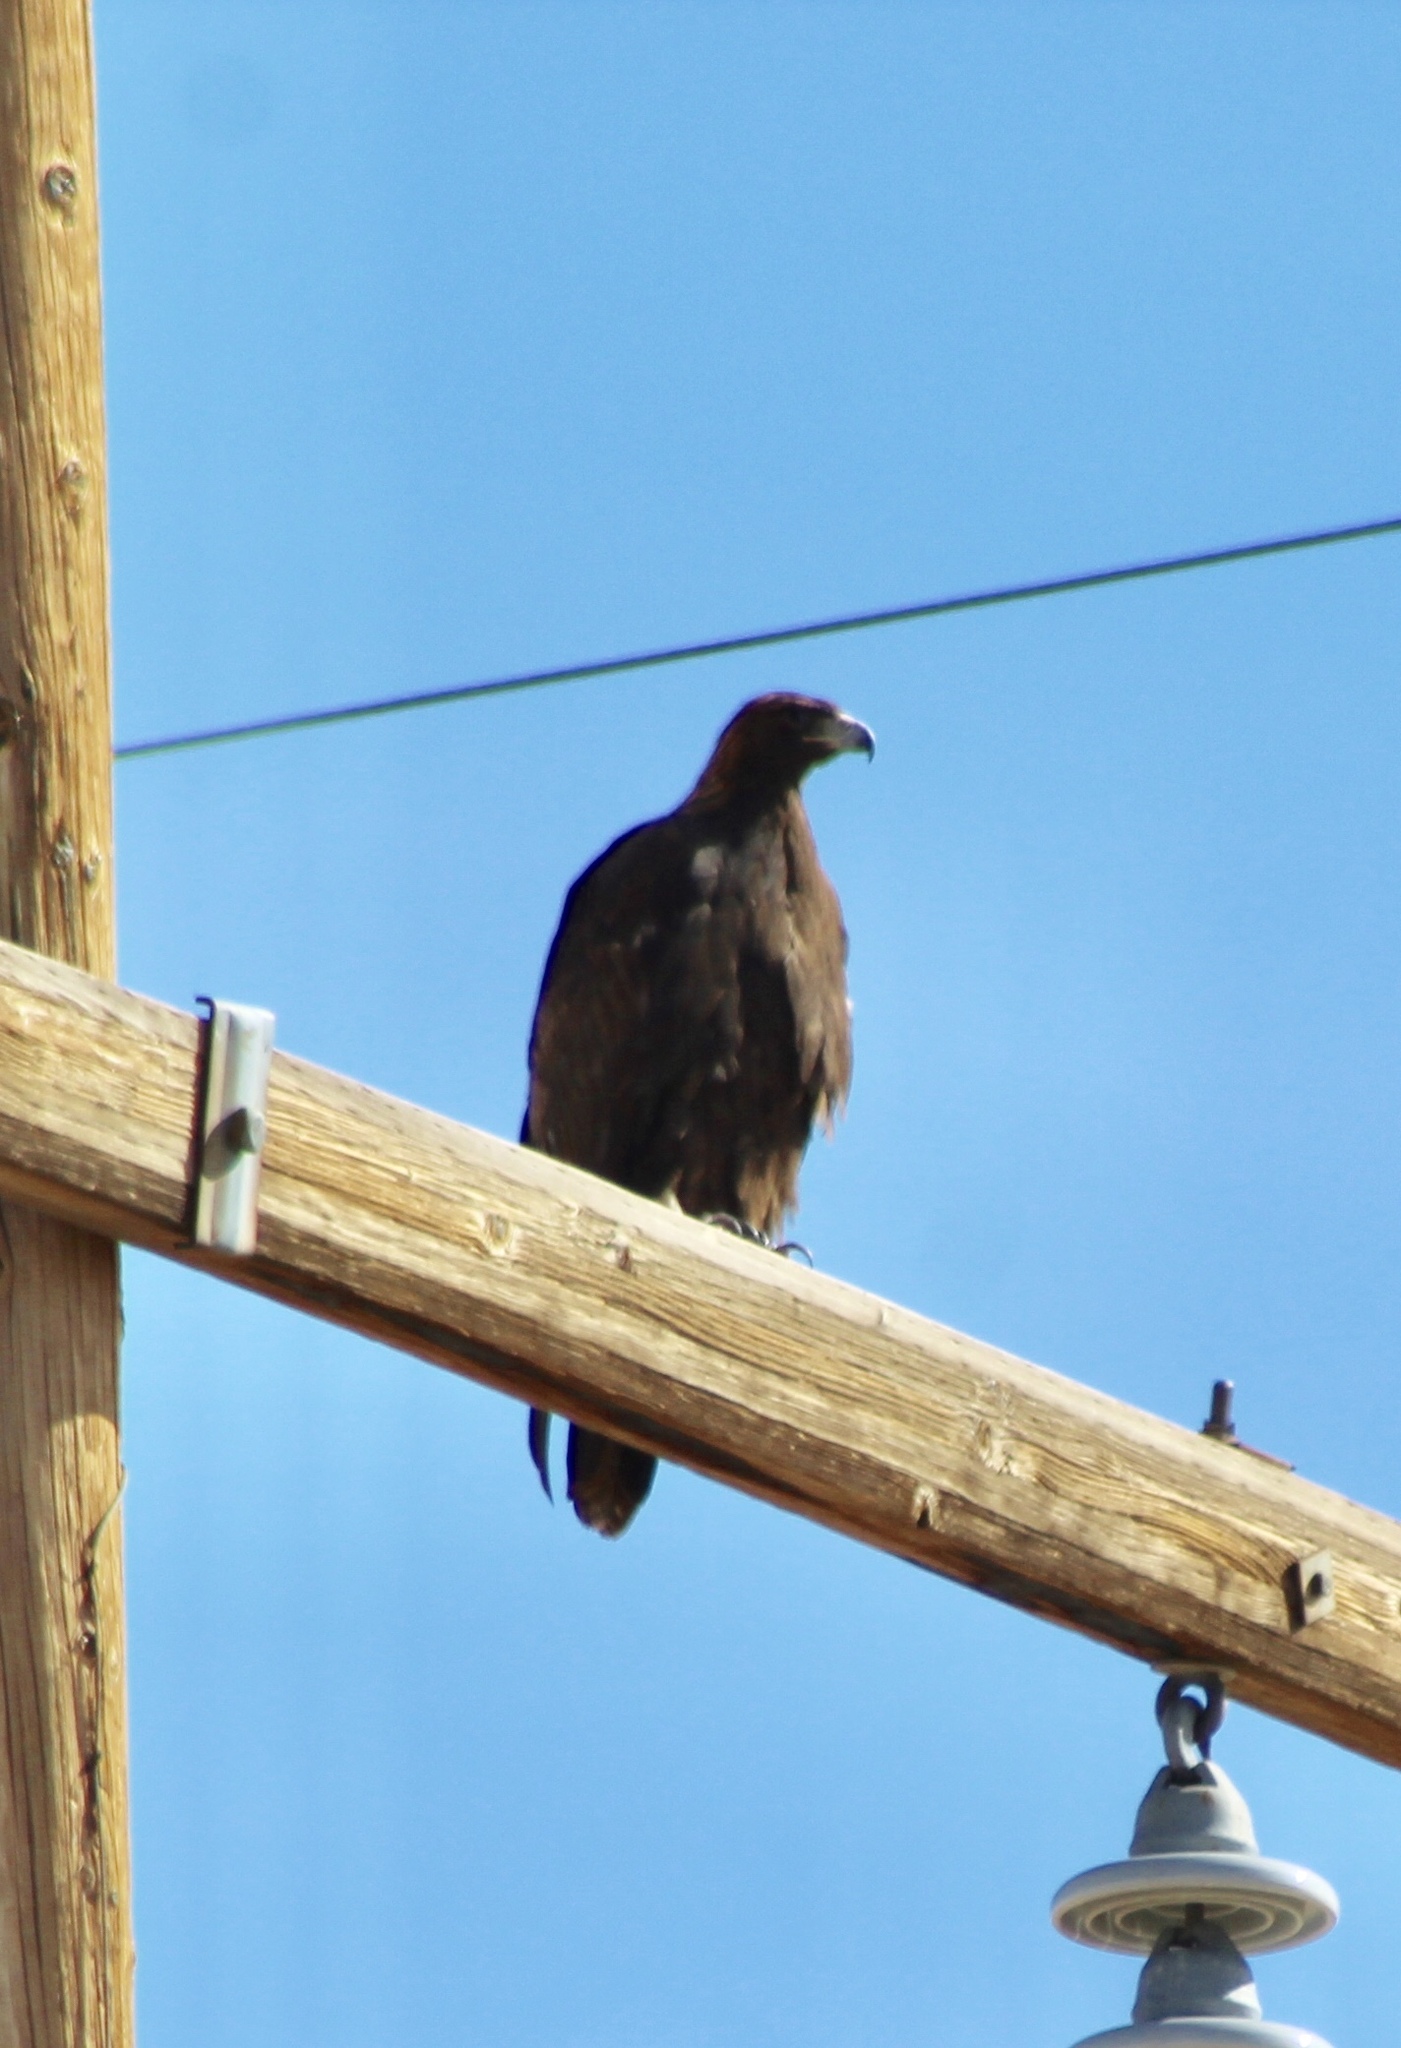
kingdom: Animalia
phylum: Chordata
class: Aves
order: Accipitriformes
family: Accipitridae
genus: Aquila
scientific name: Aquila chrysaetos
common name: Golden eagle
